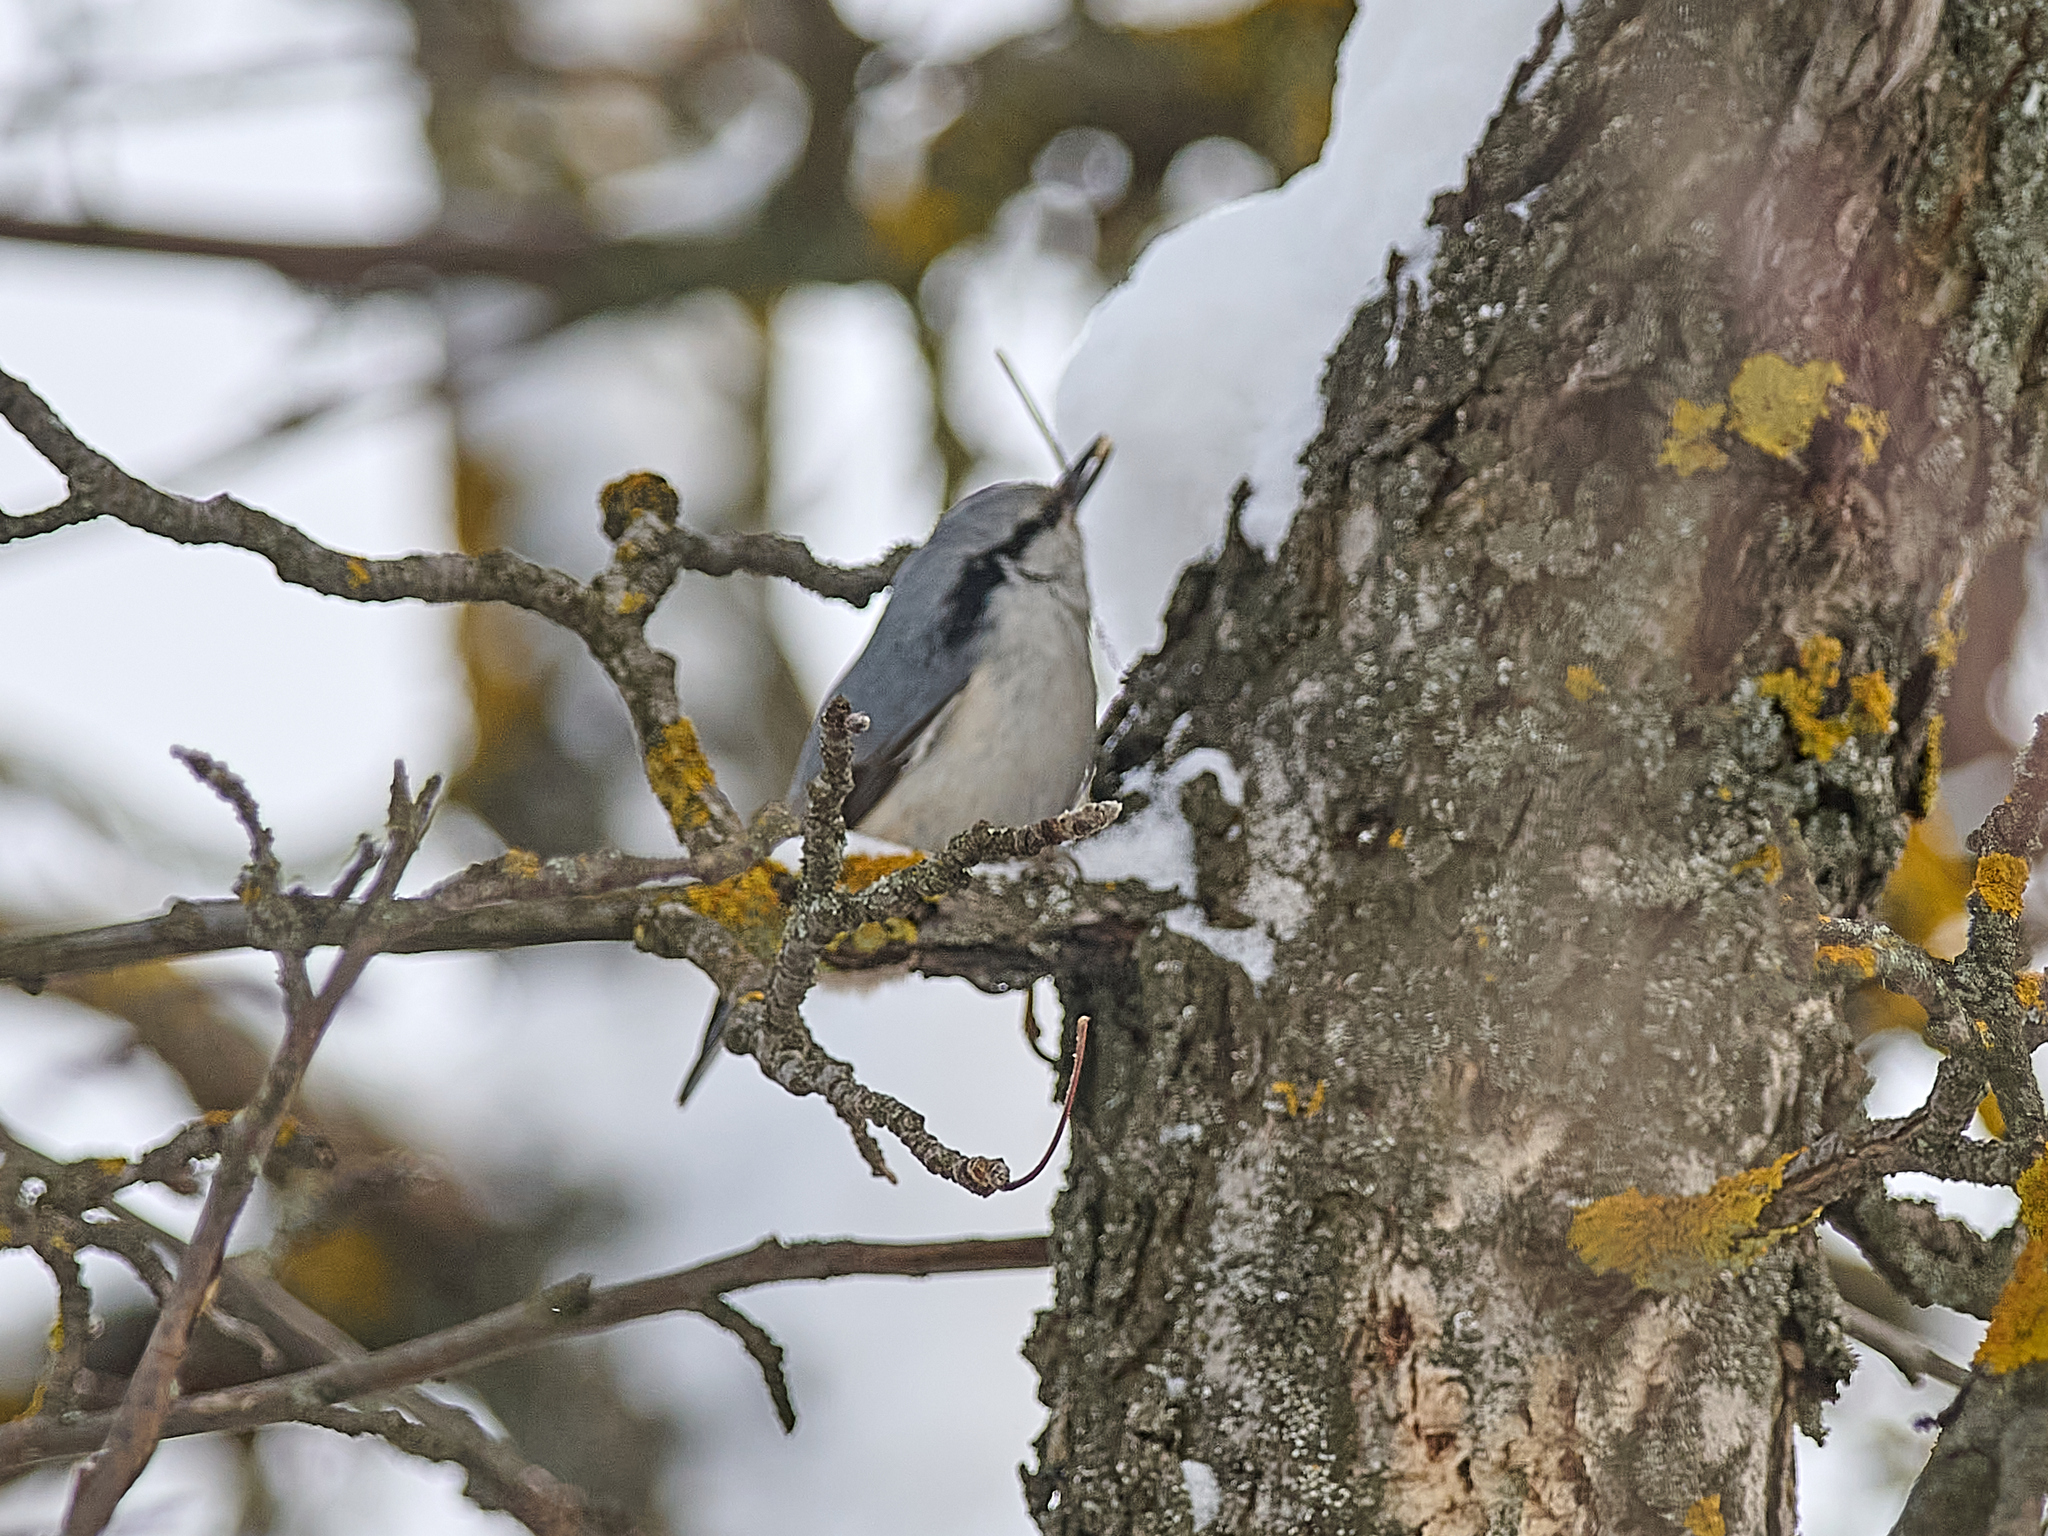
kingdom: Animalia
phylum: Chordata
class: Aves
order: Passeriformes
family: Sittidae
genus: Sitta
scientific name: Sitta europaea
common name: Eurasian nuthatch
